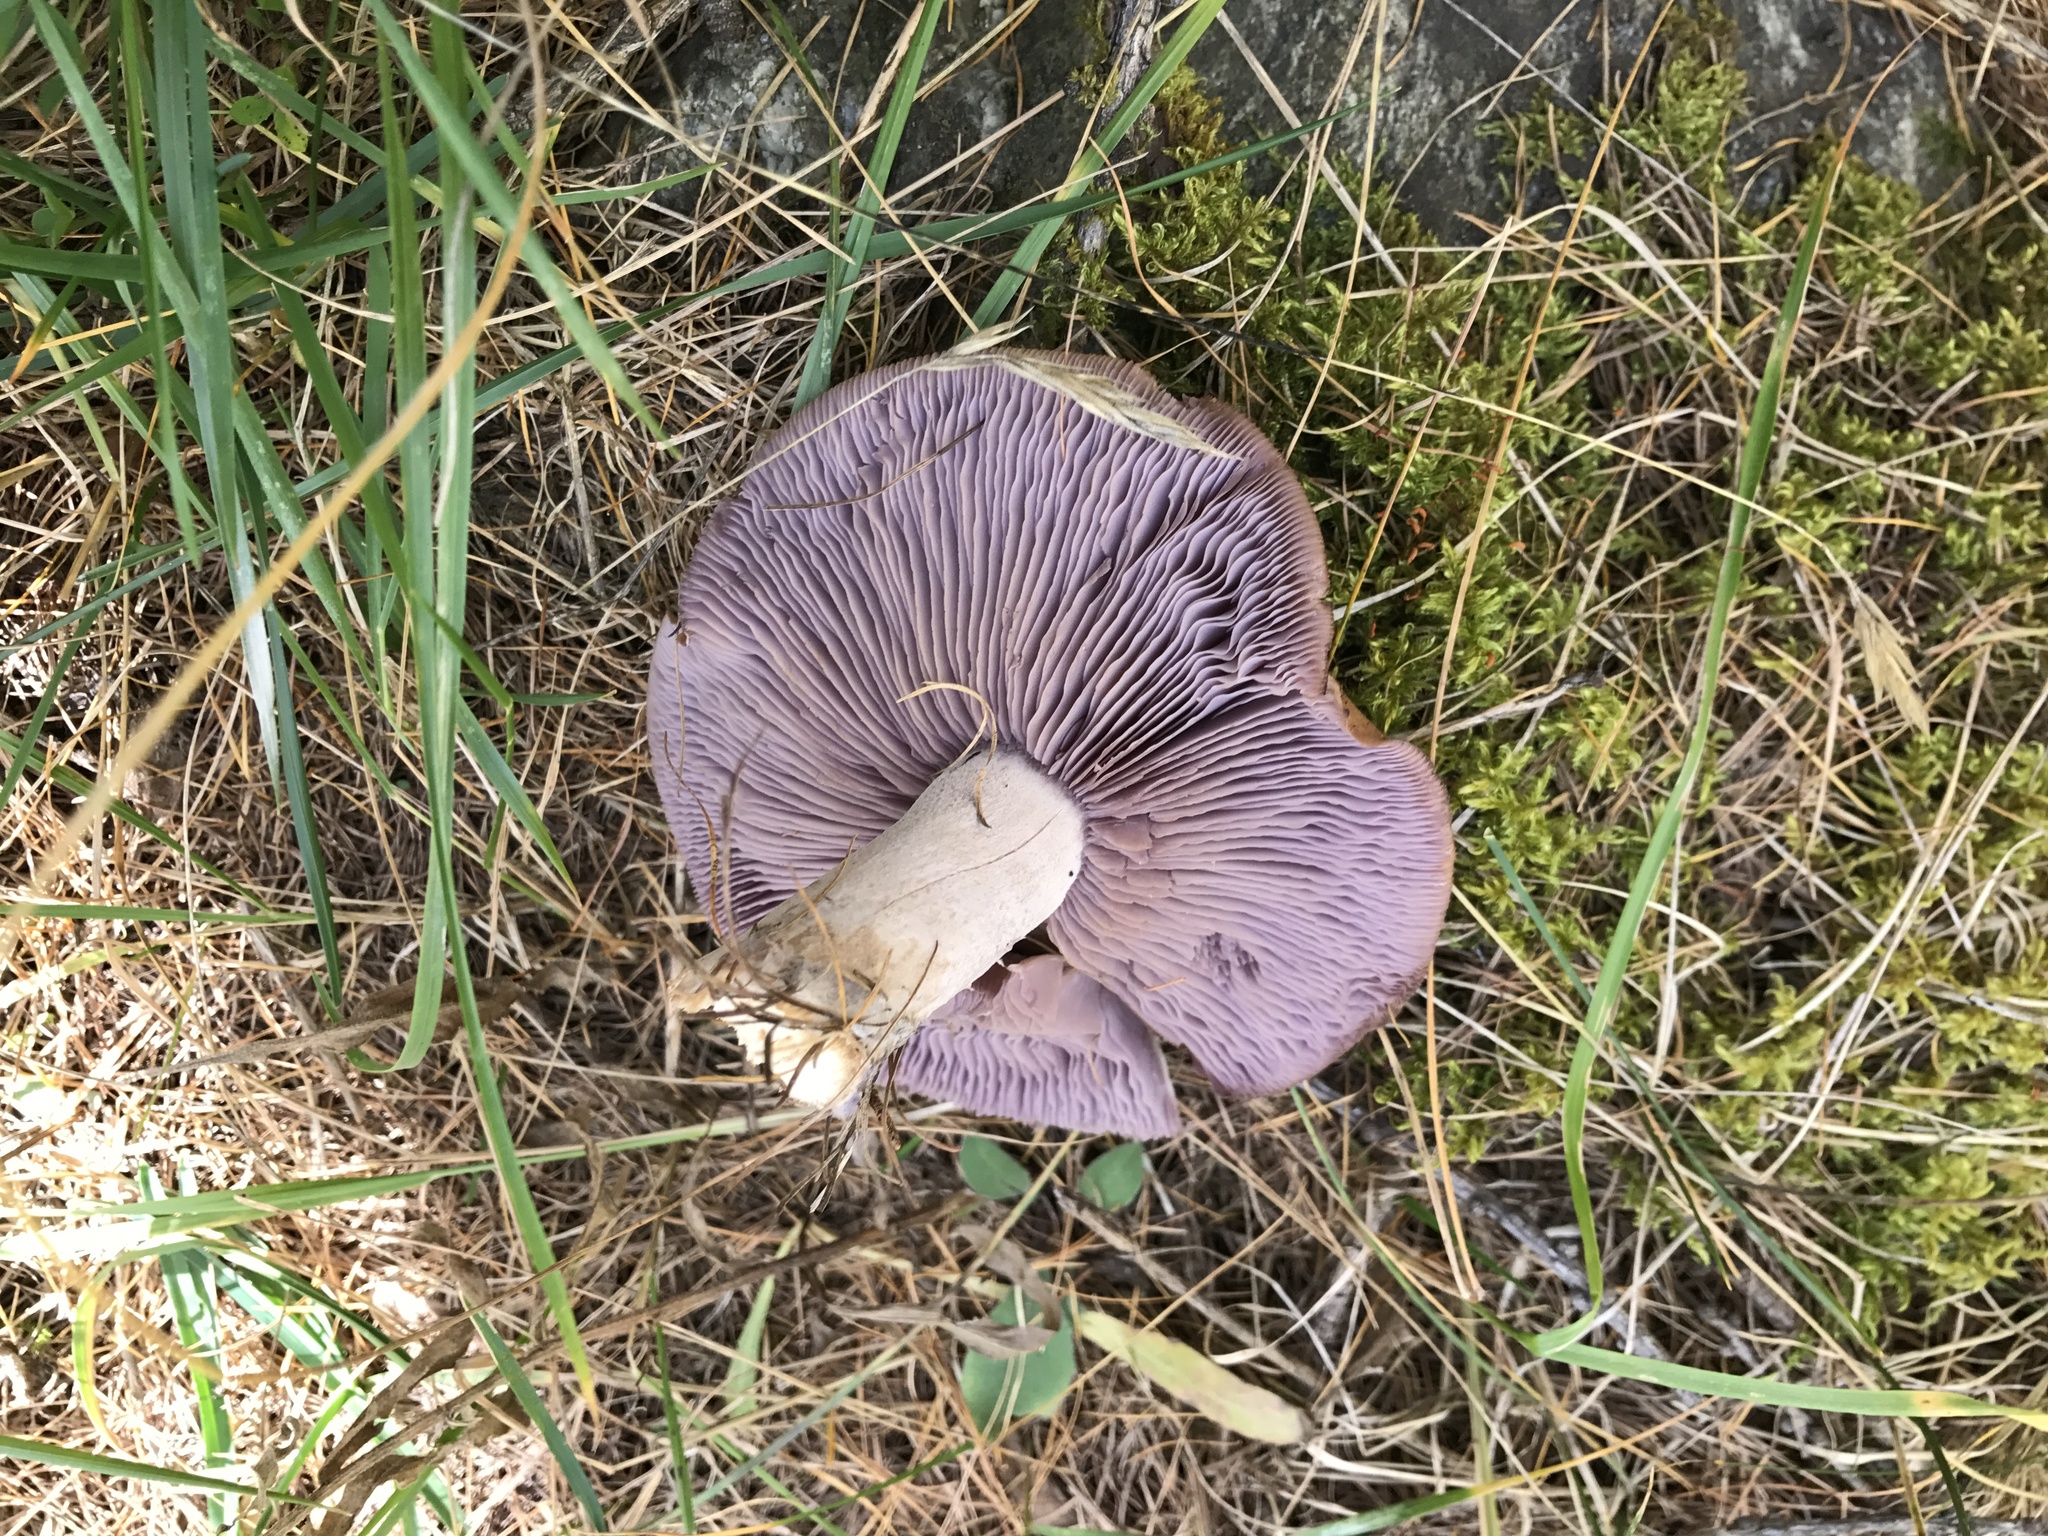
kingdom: Fungi
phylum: Basidiomycota
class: Agaricomycetes
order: Agaricales
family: Tricholomataceae
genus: Collybia
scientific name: Collybia
